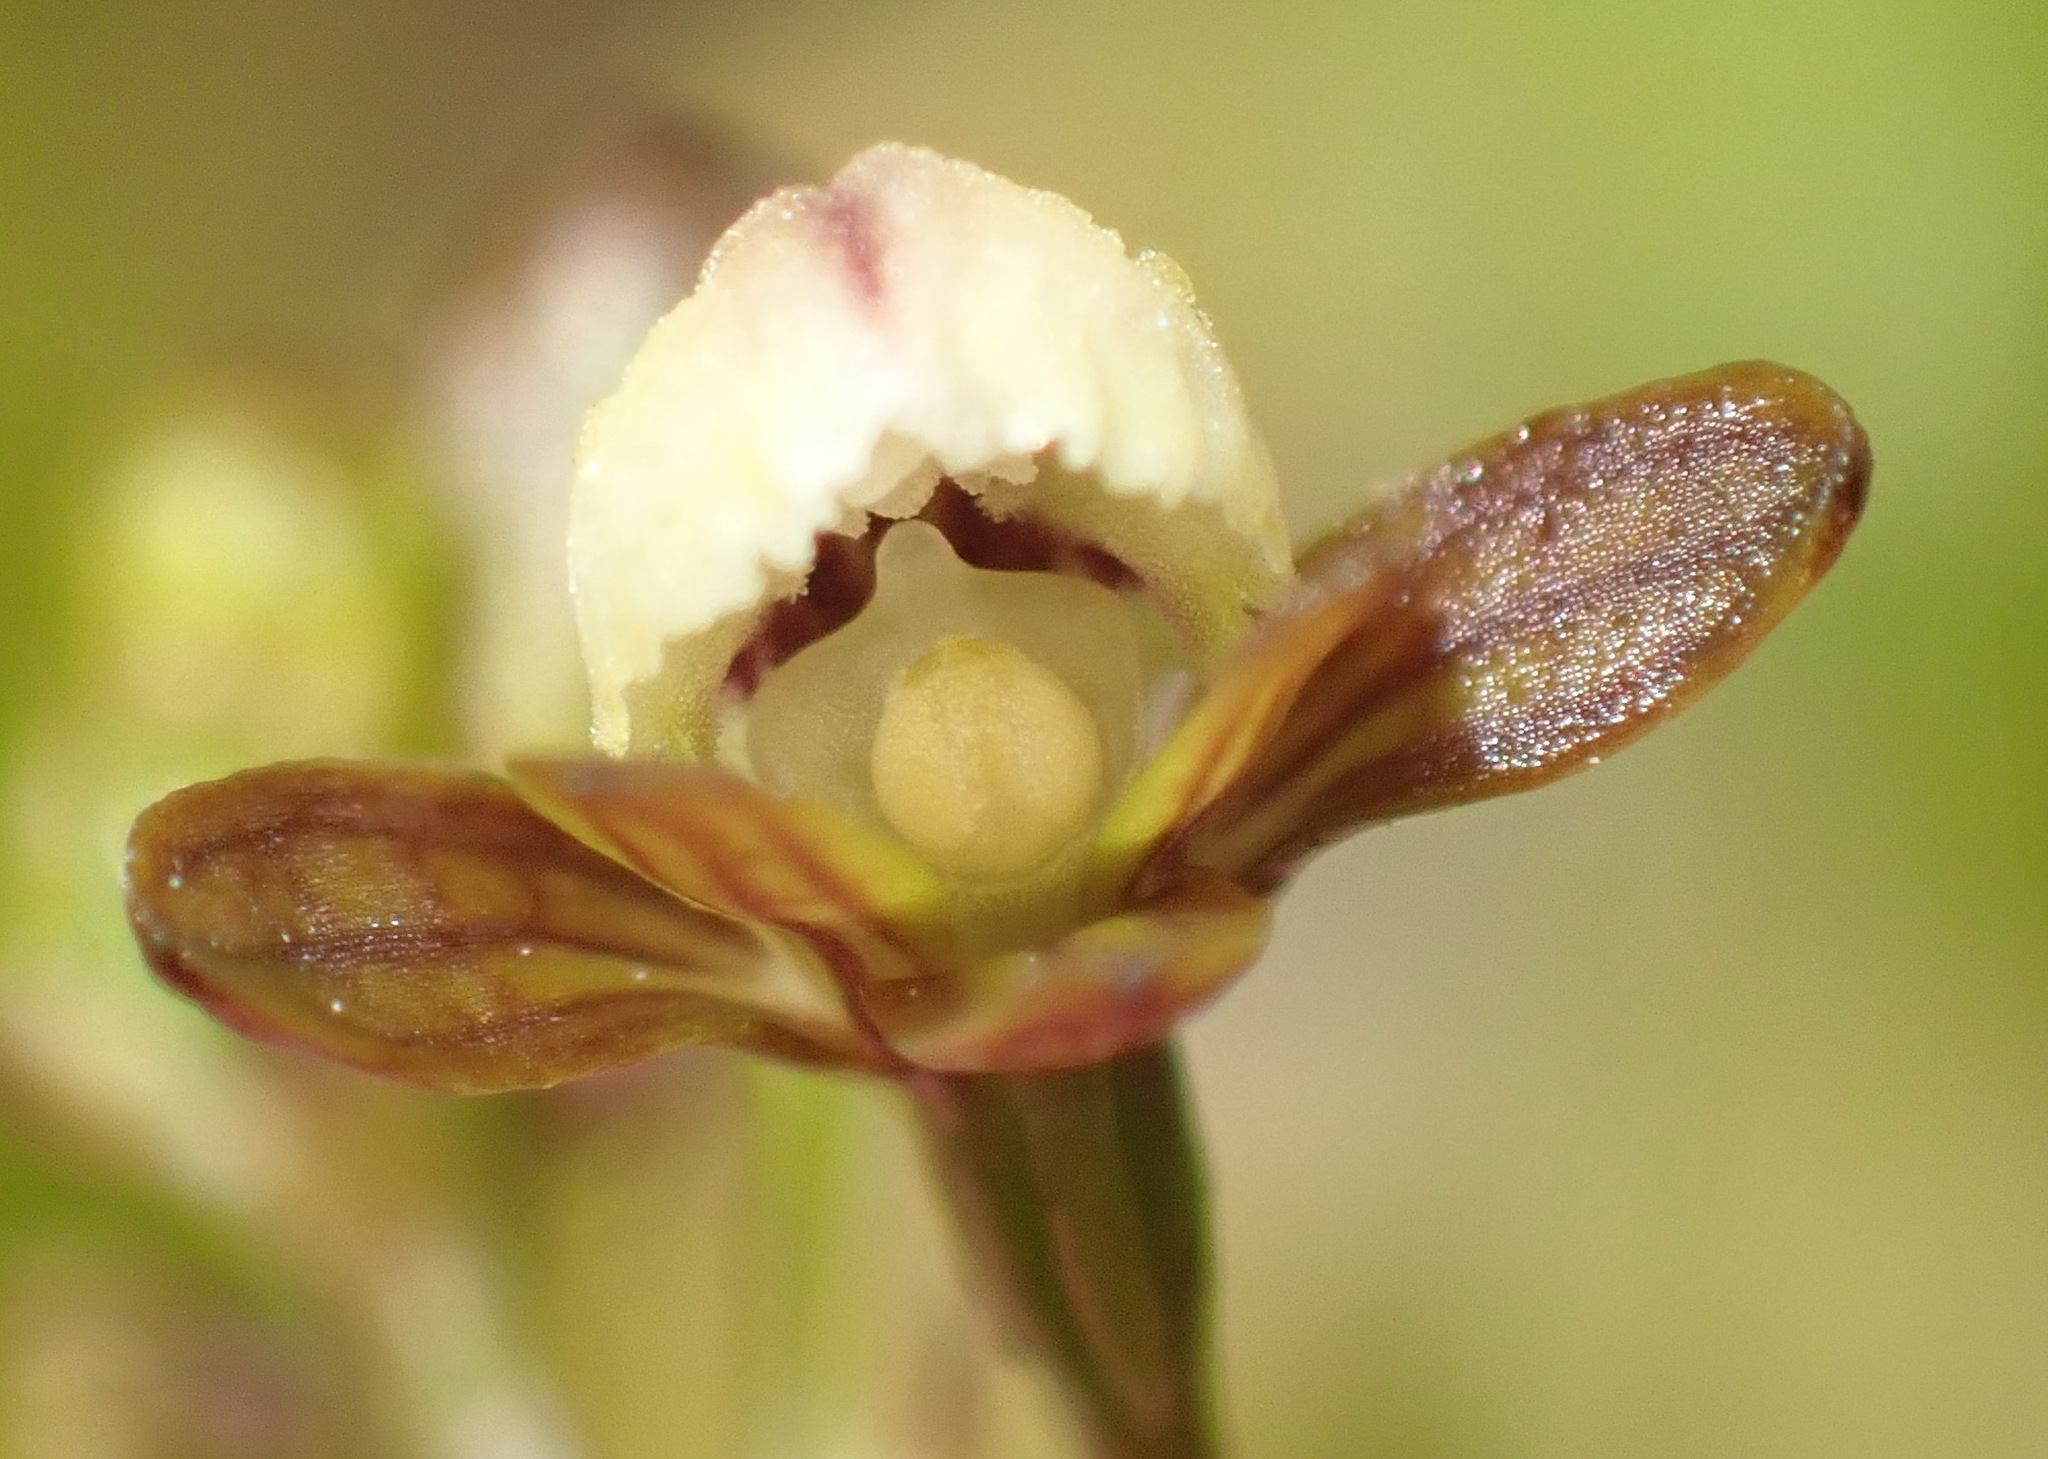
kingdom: Plantae
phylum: Tracheophyta
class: Liliopsida
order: Asparagales
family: Orchidaceae
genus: Eulophia
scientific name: Eulophia cochlearis
